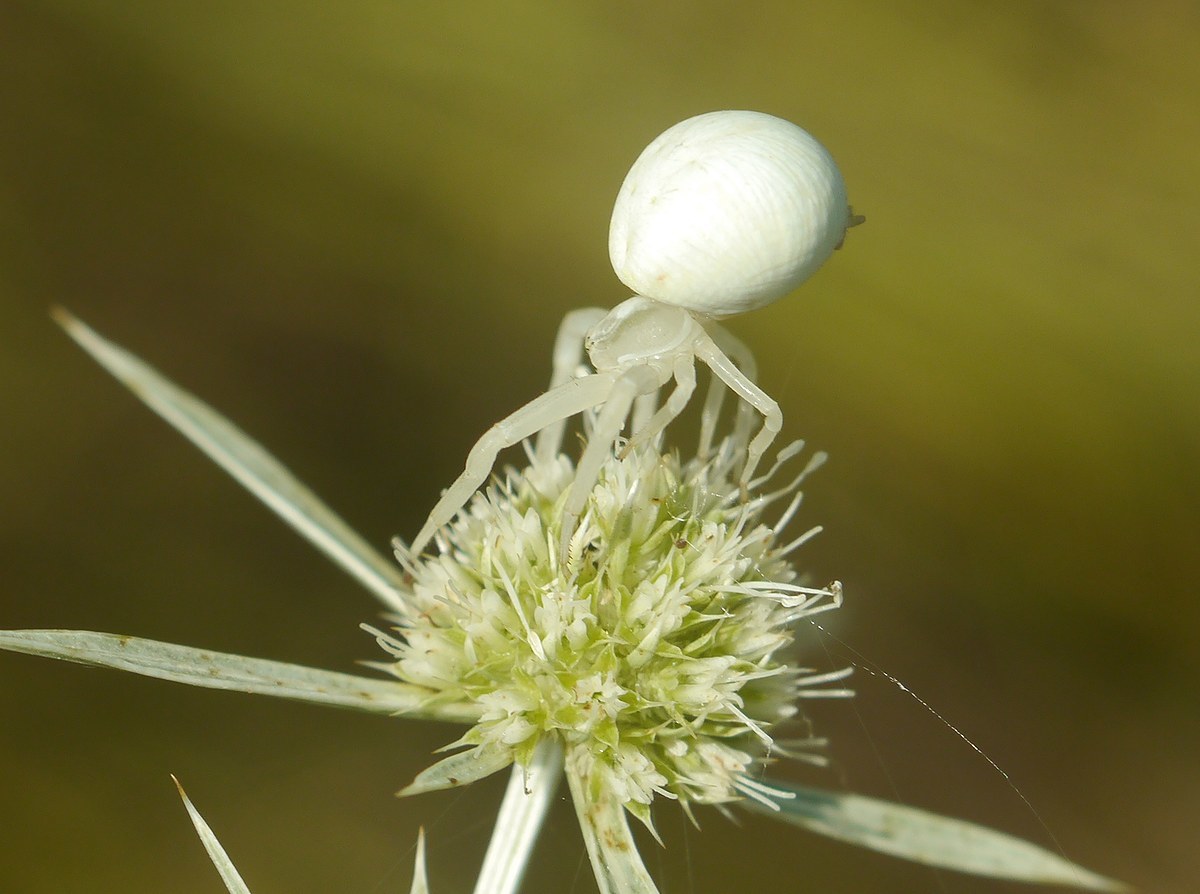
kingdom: Animalia
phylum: Arthropoda
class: Arachnida
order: Araneae
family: Thomisidae
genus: Misumena
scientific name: Misumena vatia
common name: Goldenrod crab spider
